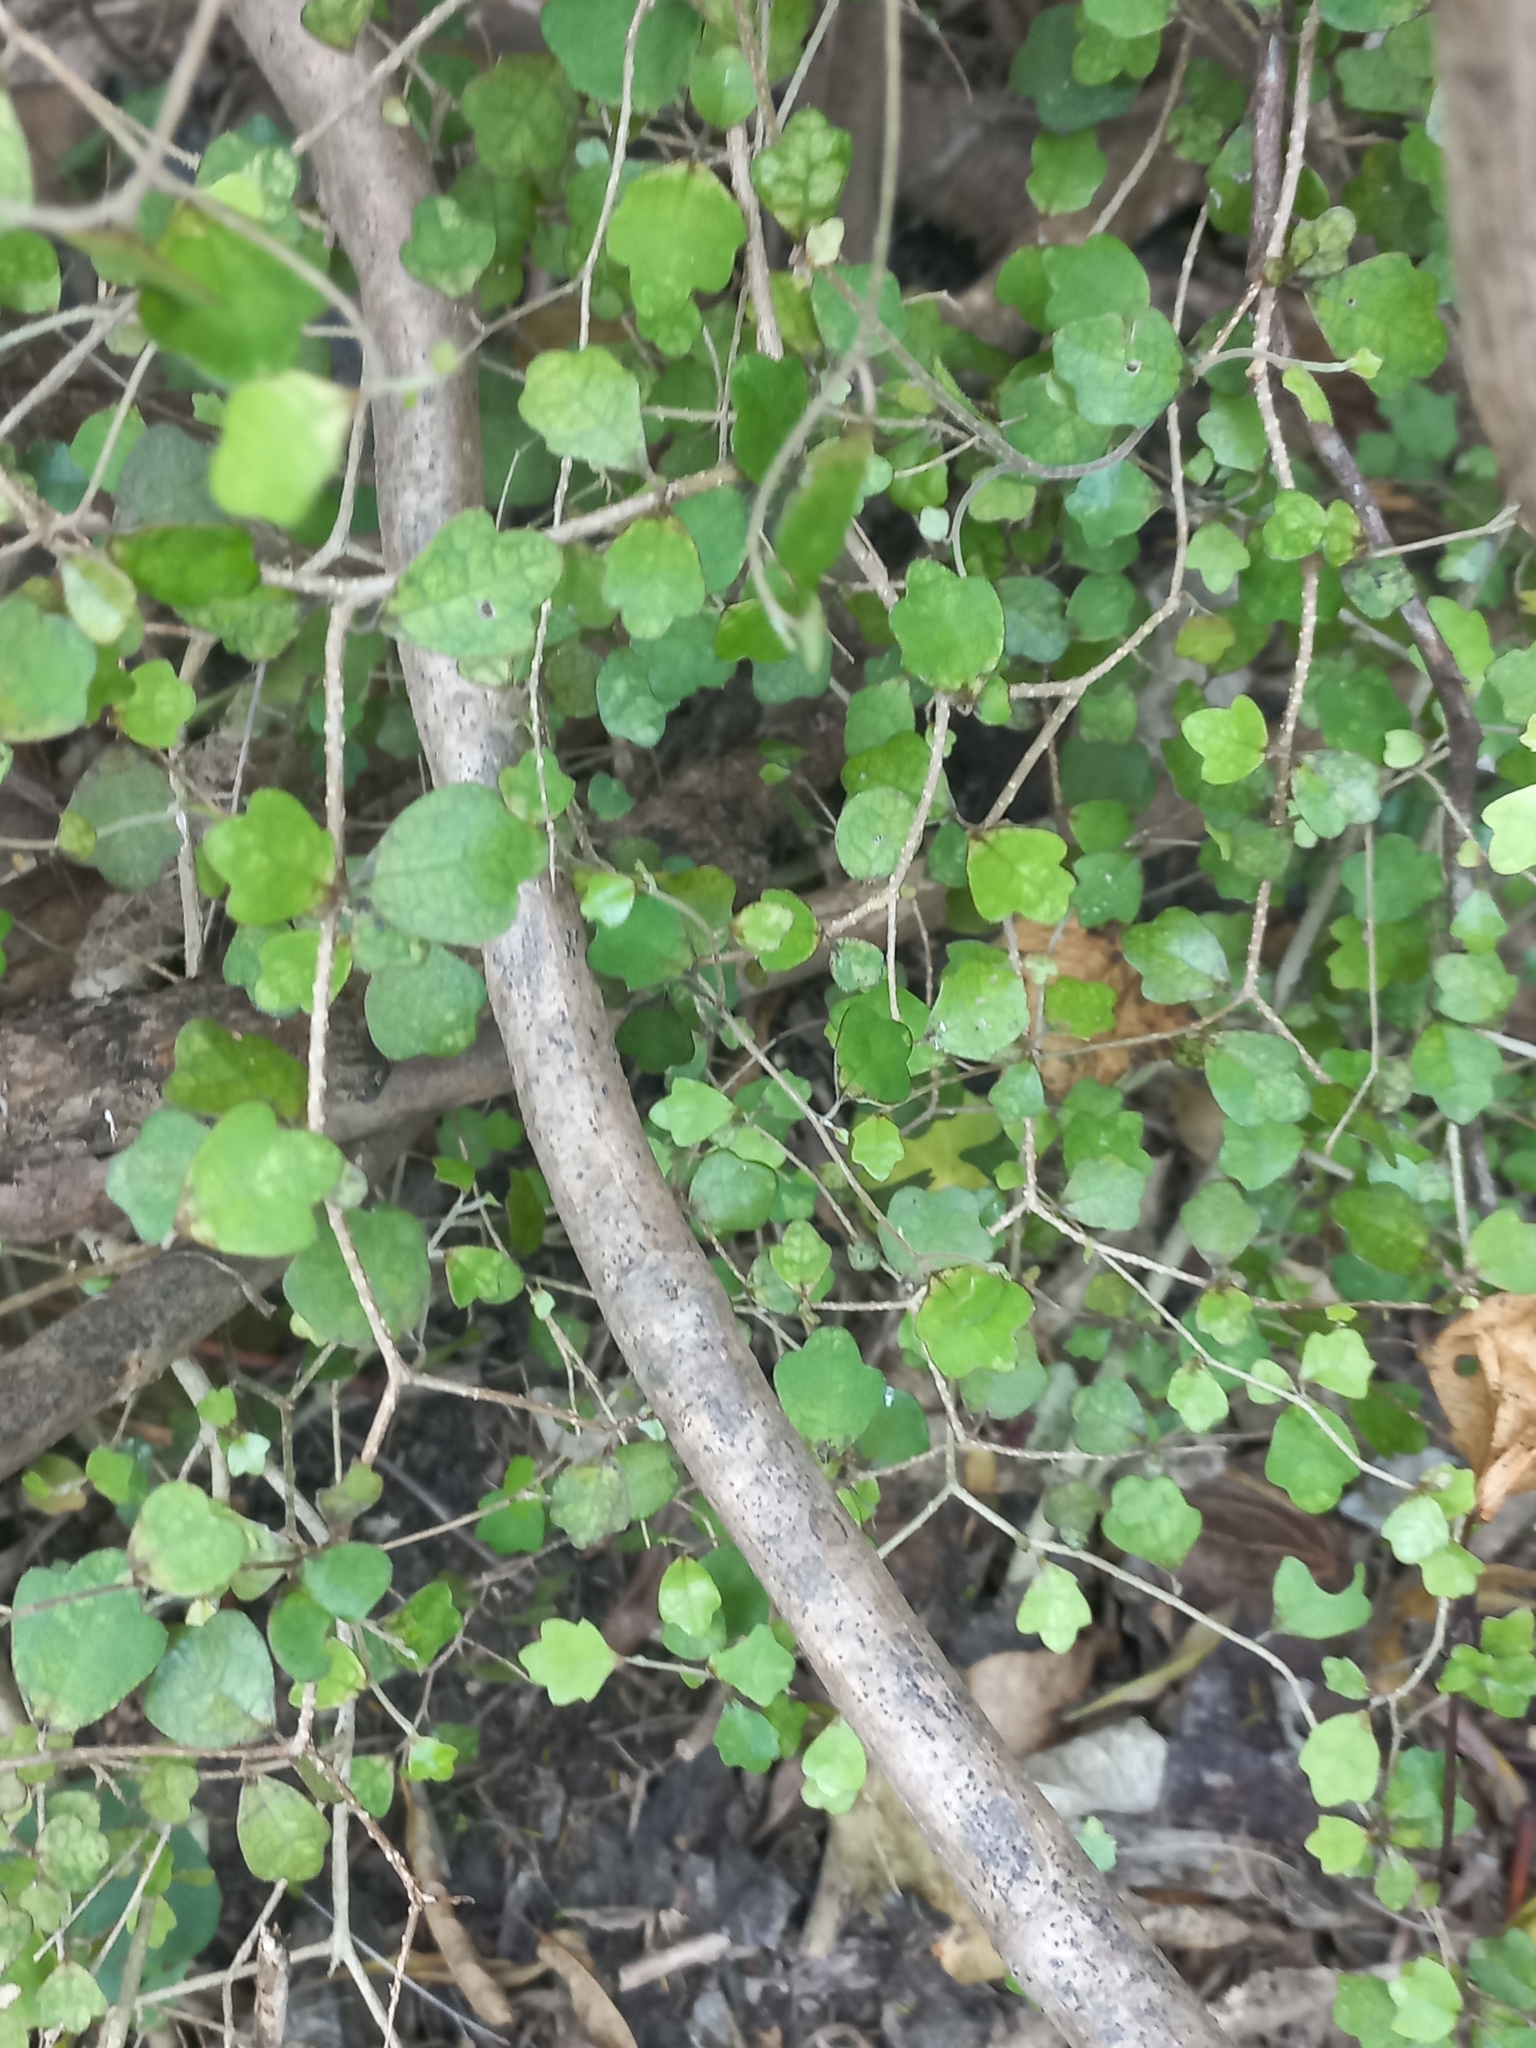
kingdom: Plantae
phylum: Tracheophyta
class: Magnoliopsida
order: Apiales
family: Pennantiaceae
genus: Pennantia
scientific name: Pennantia corymbosa
